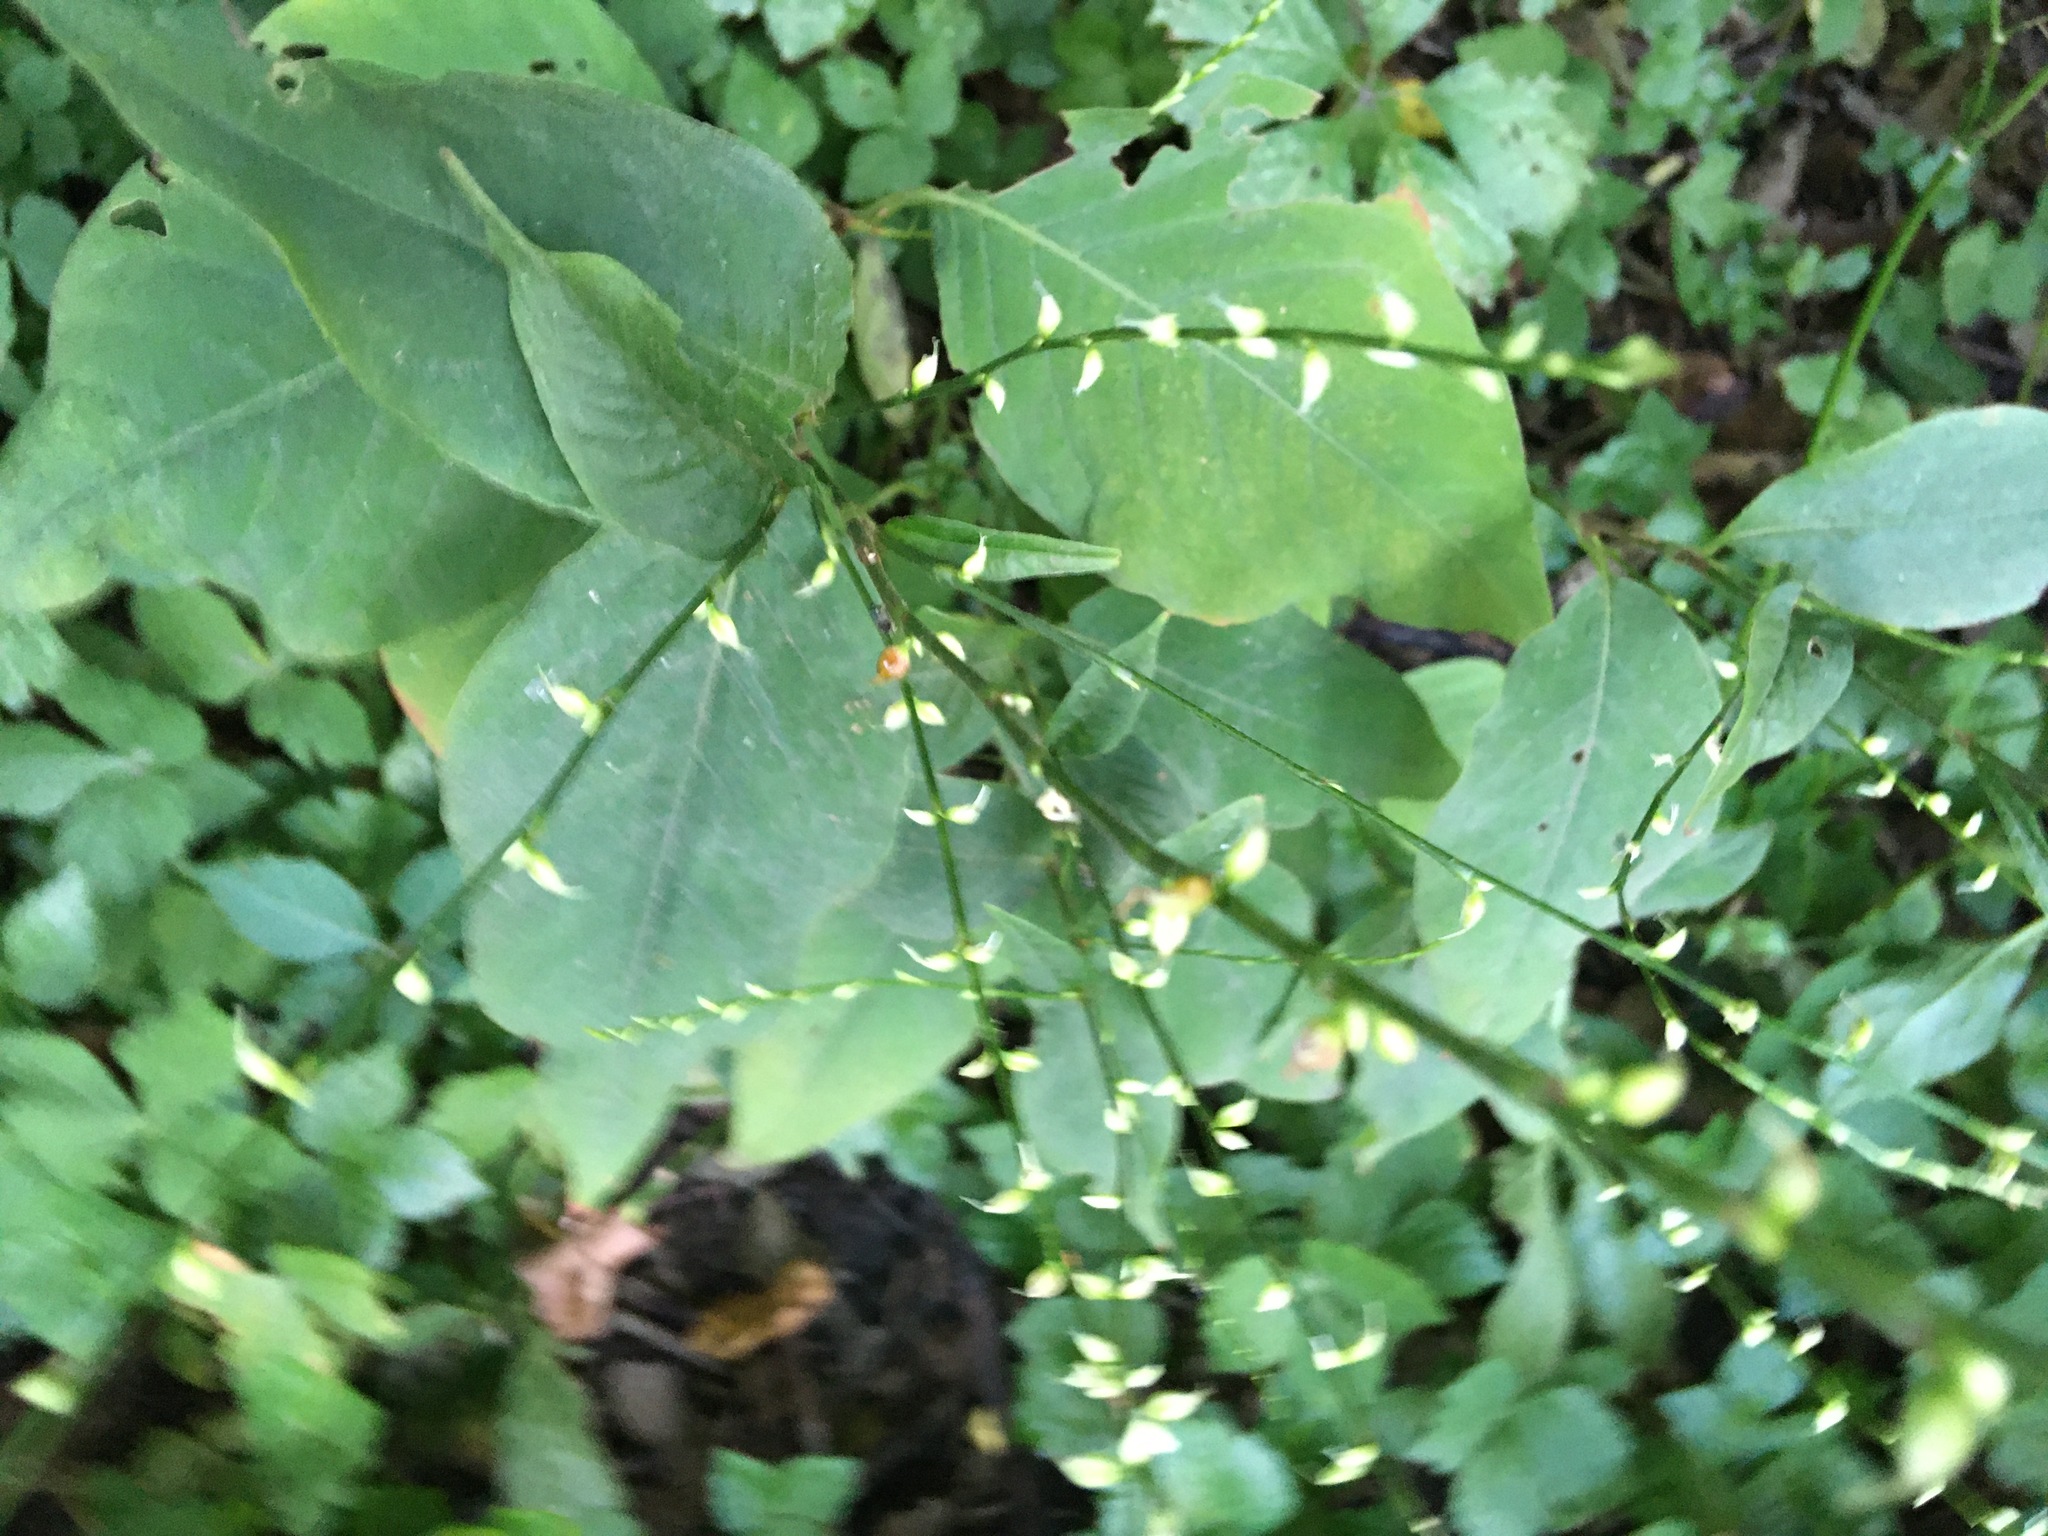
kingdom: Plantae
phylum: Tracheophyta
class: Magnoliopsida
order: Caryophyllales
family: Polygonaceae
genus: Persicaria
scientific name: Persicaria virginiana
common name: Jumpseed
